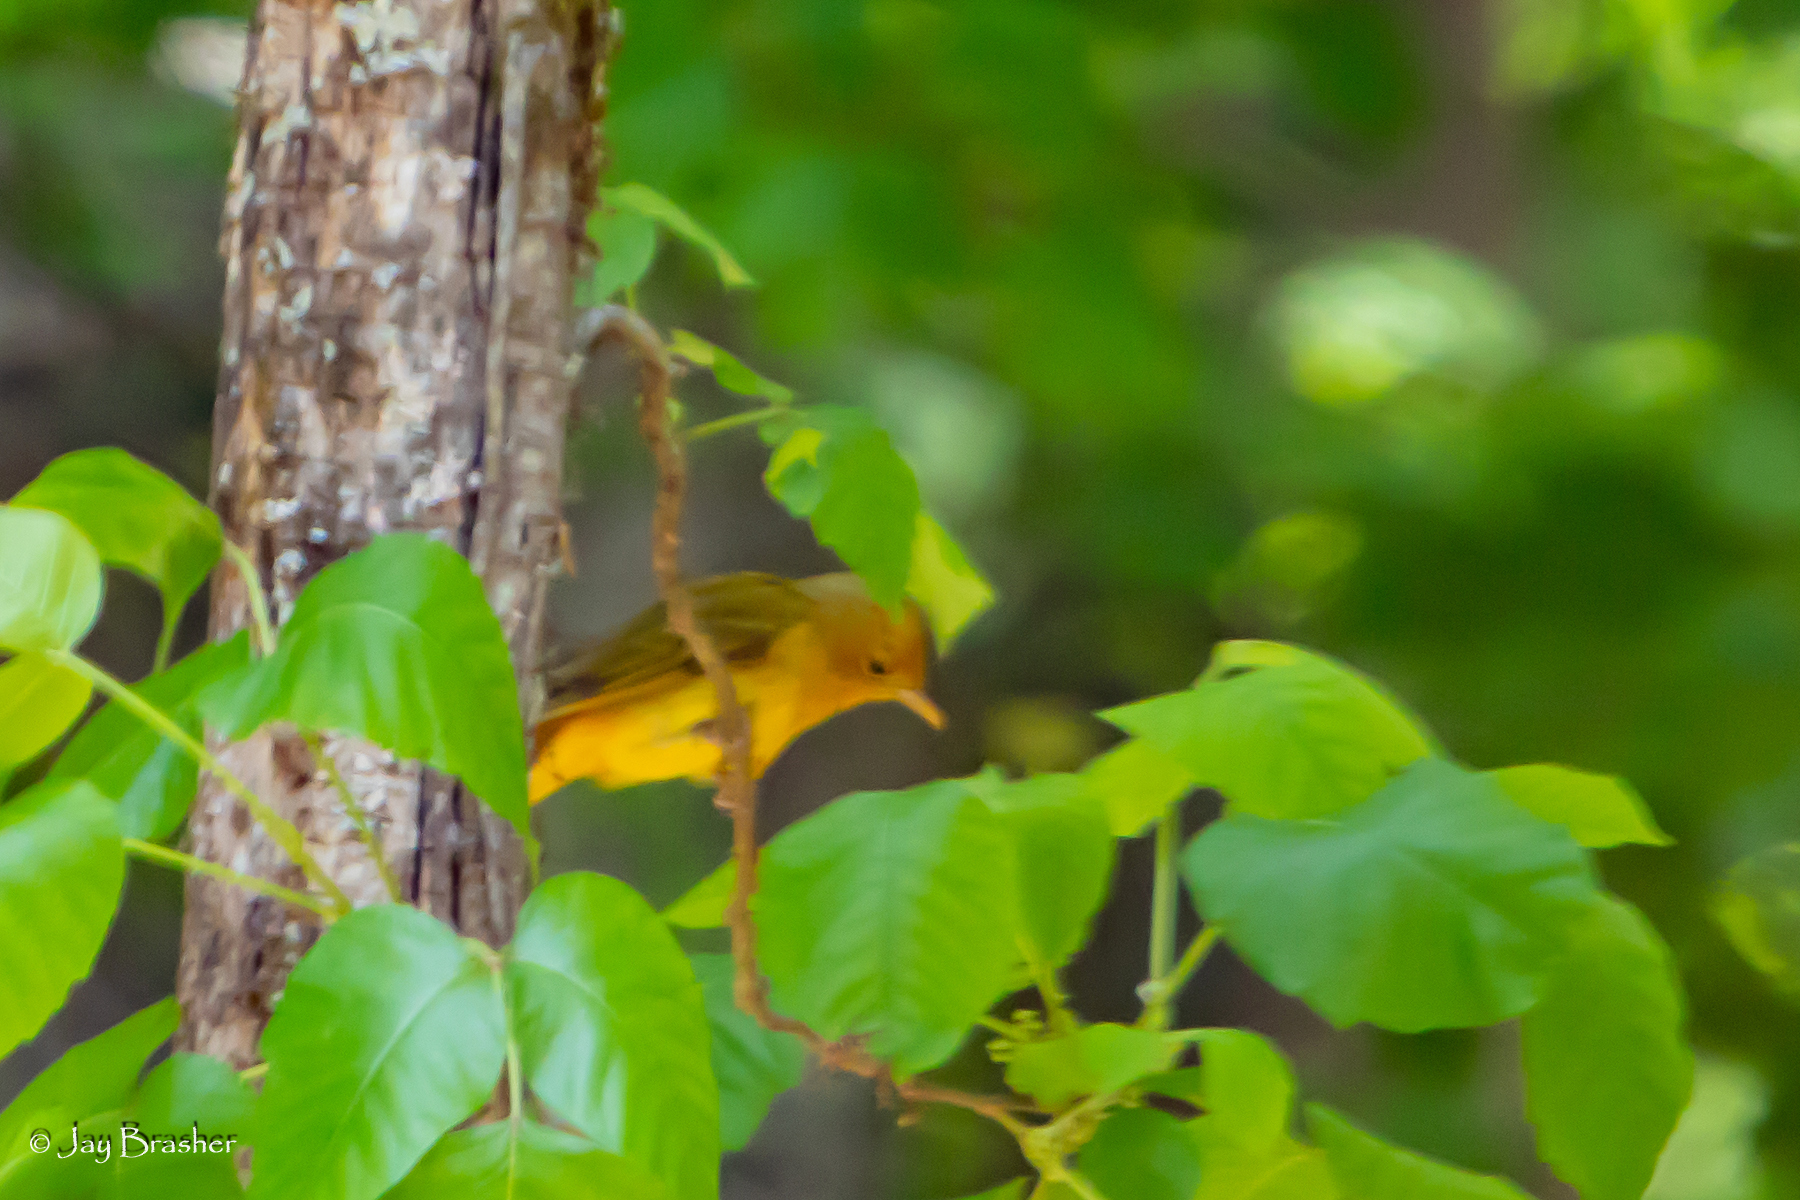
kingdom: Animalia
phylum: Chordata
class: Aves
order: Passeriformes
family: Cardinalidae
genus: Piranga
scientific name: Piranga rubra
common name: Summer tanager
